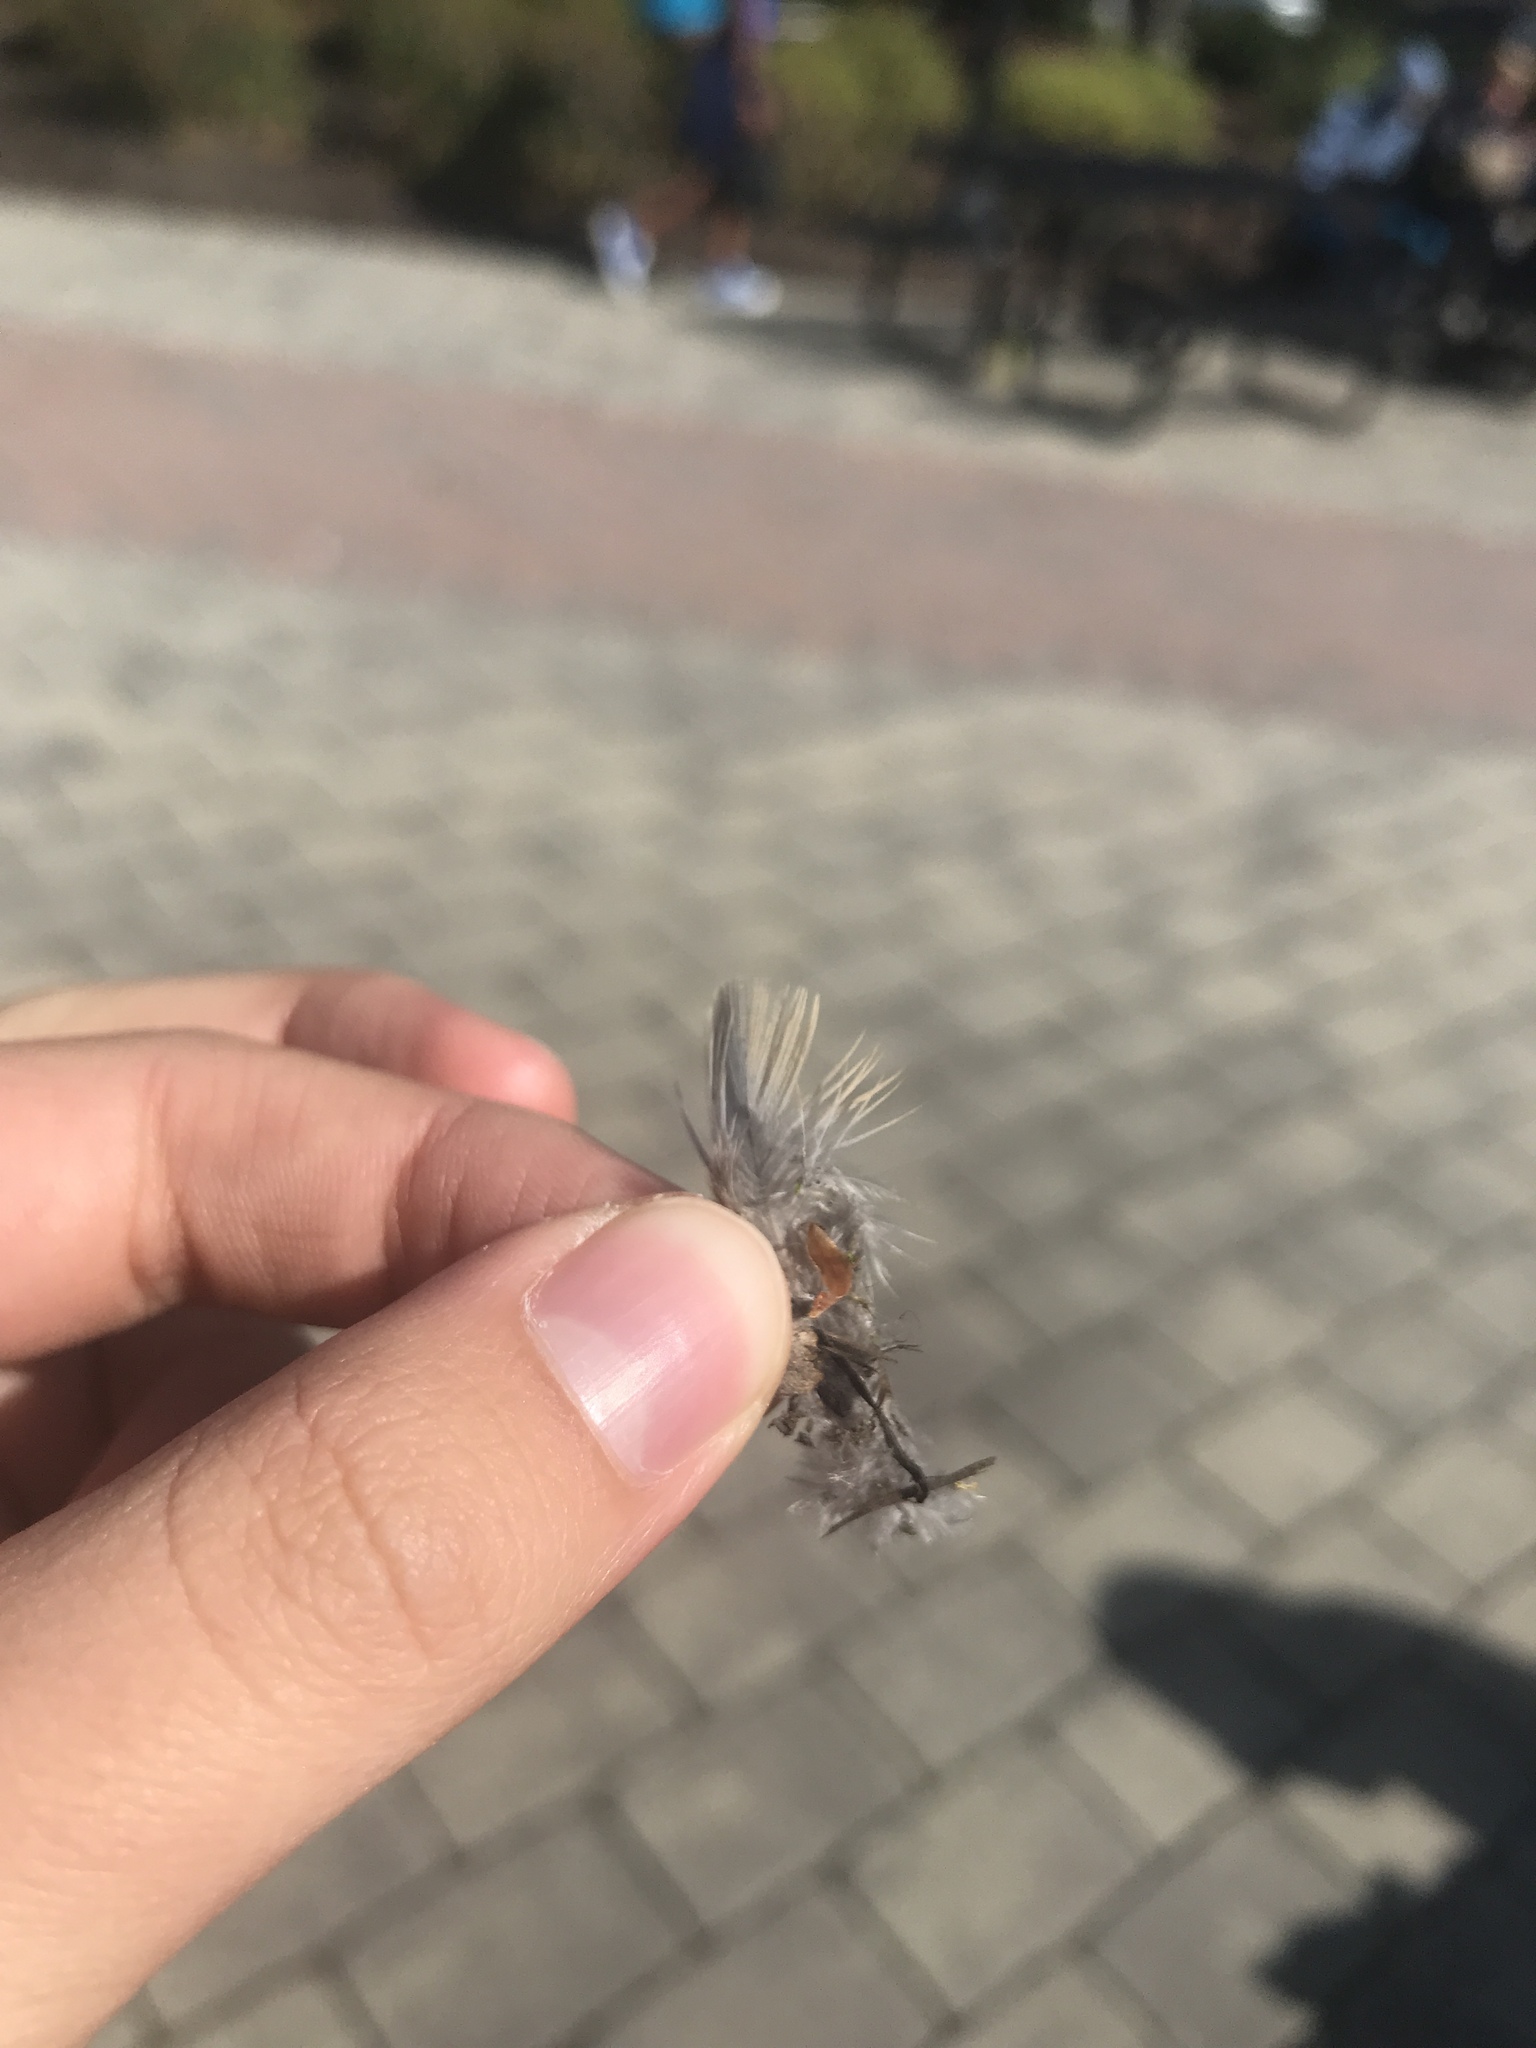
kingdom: Animalia
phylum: Chordata
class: Aves
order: Columbiformes
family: Columbidae
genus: Zenaida
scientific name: Zenaida macroura
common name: Mourning dove
